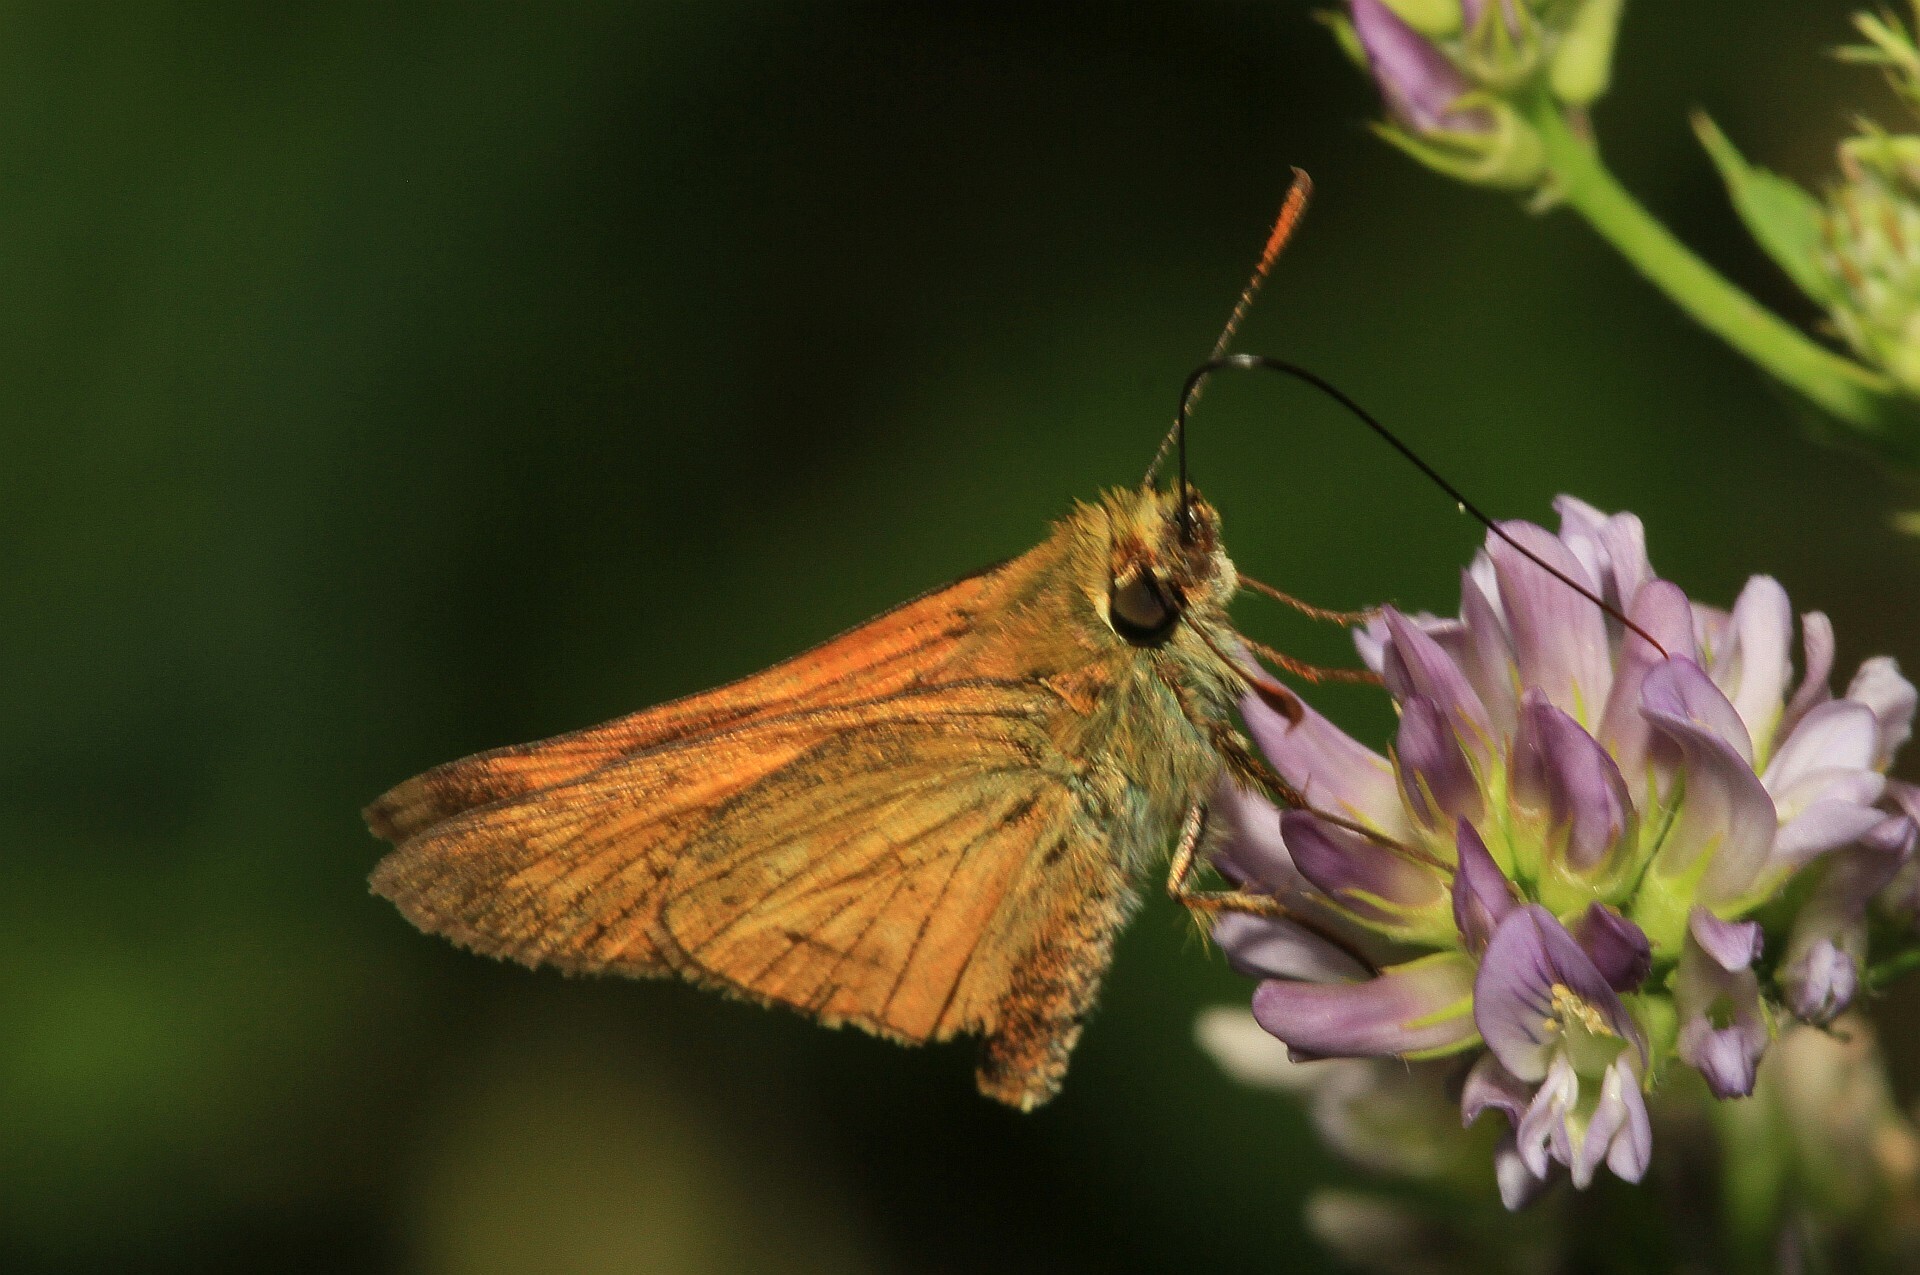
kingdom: Animalia
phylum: Arthropoda
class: Insecta
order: Lepidoptera
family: Hesperiidae
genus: Ochlodes
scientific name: Ochlodes venata
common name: Large skipper
